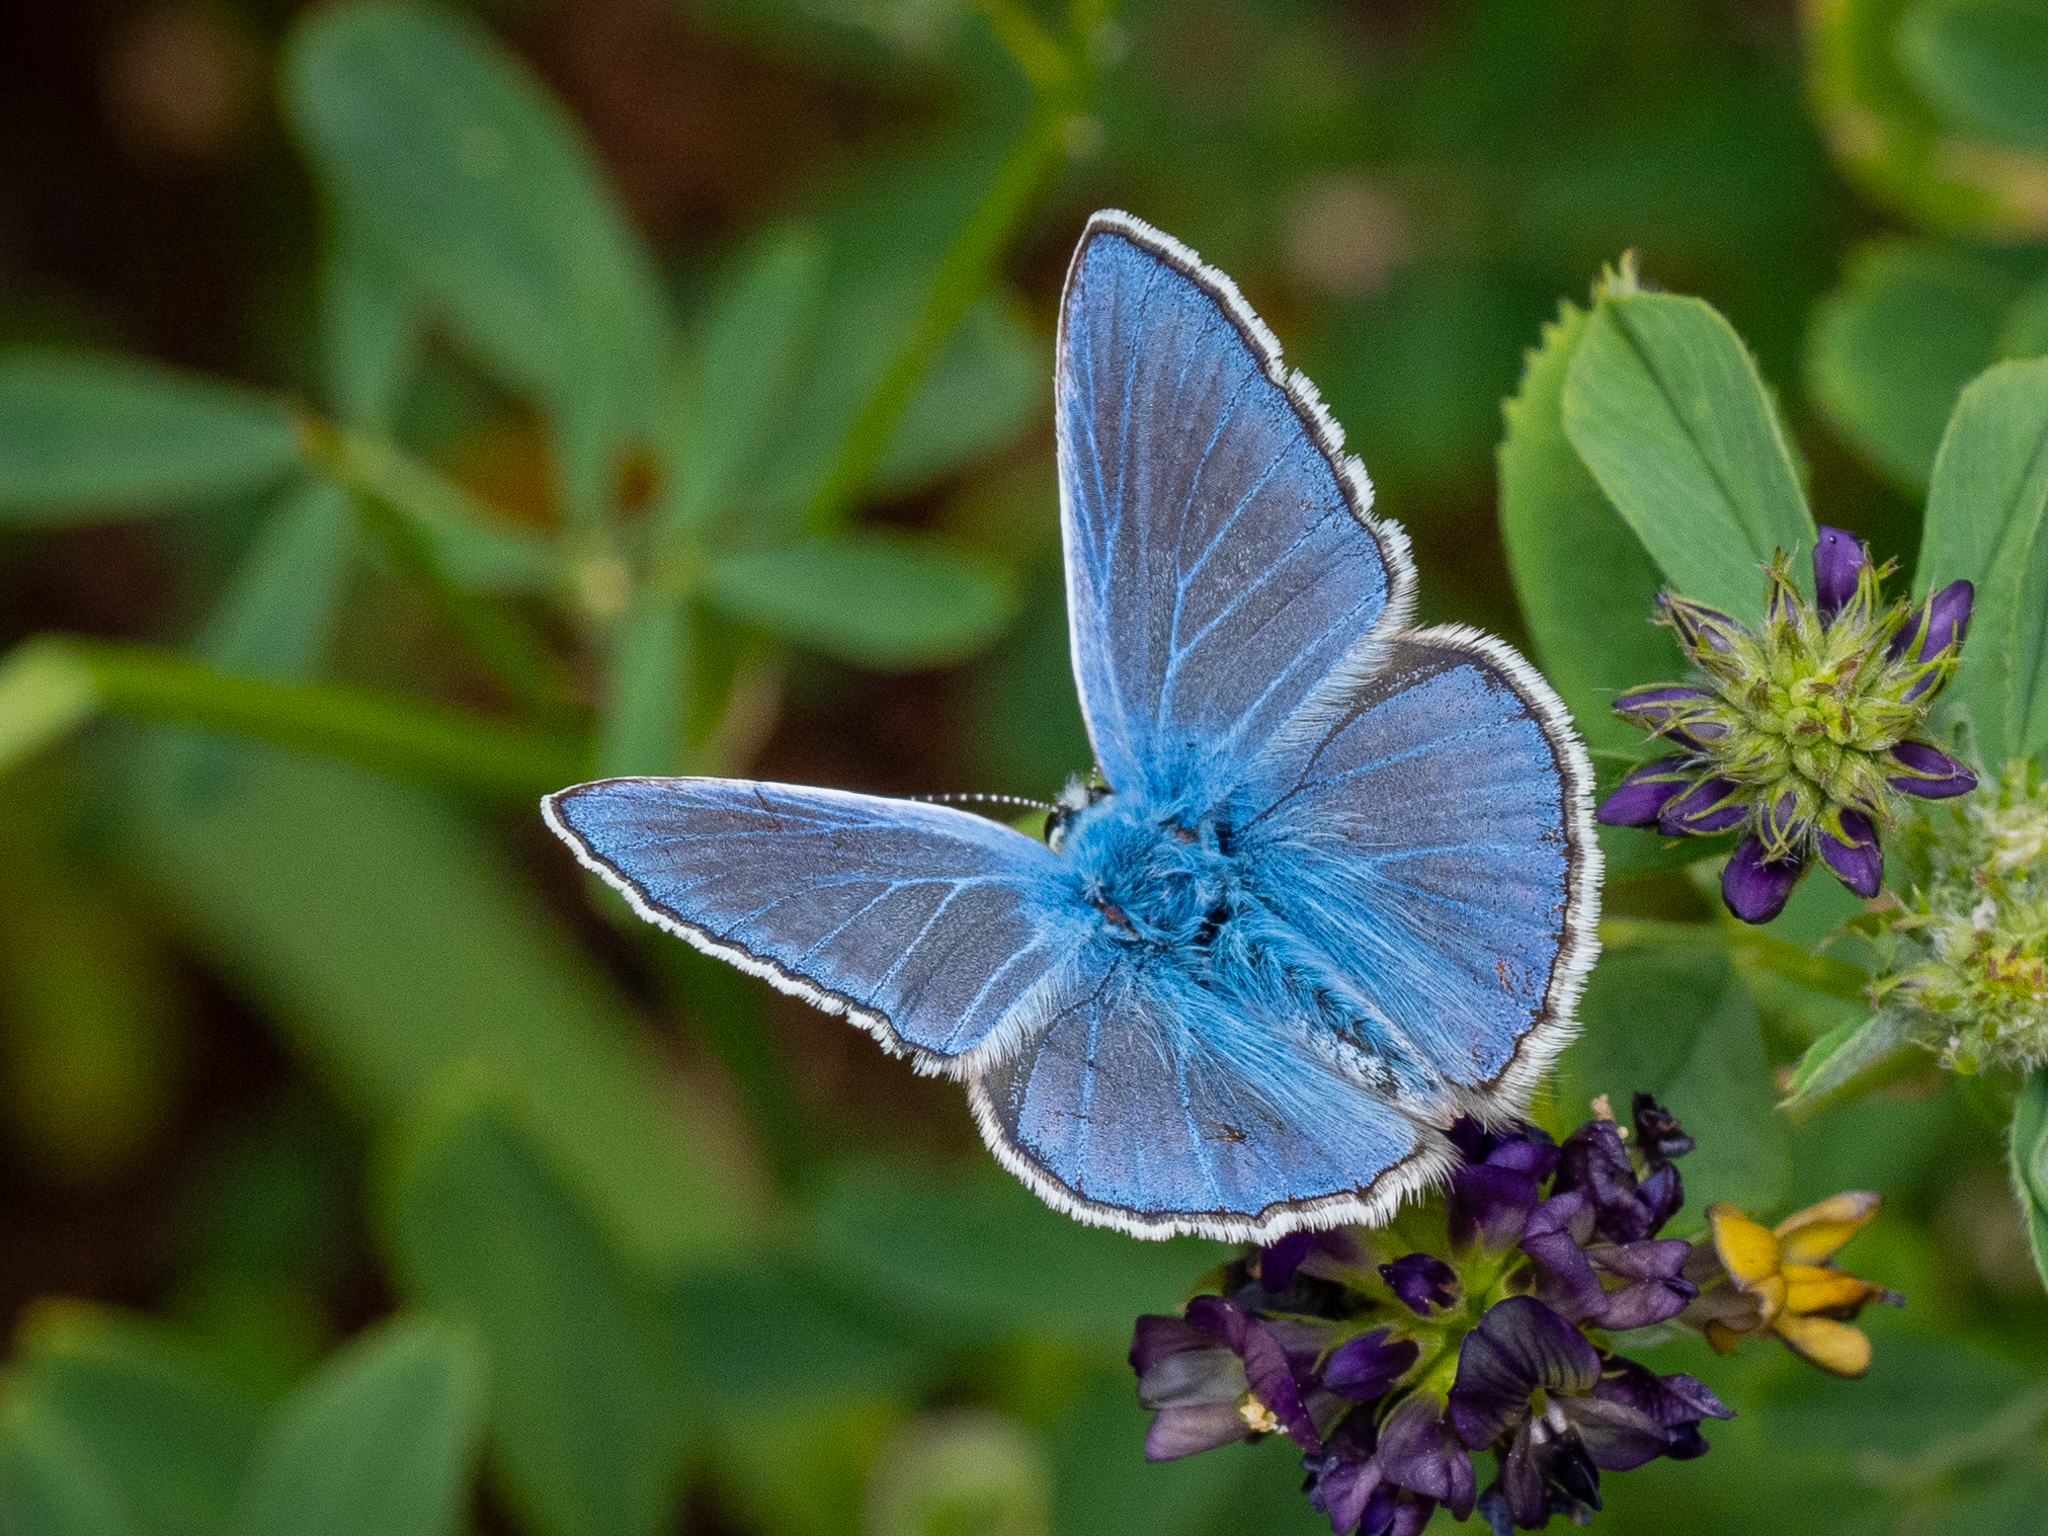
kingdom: Animalia
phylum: Arthropoda
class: Insecta
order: Lepidoptera
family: Lycaenidae
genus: Polyommatus
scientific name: Polyommatus icarus
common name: Common blue
